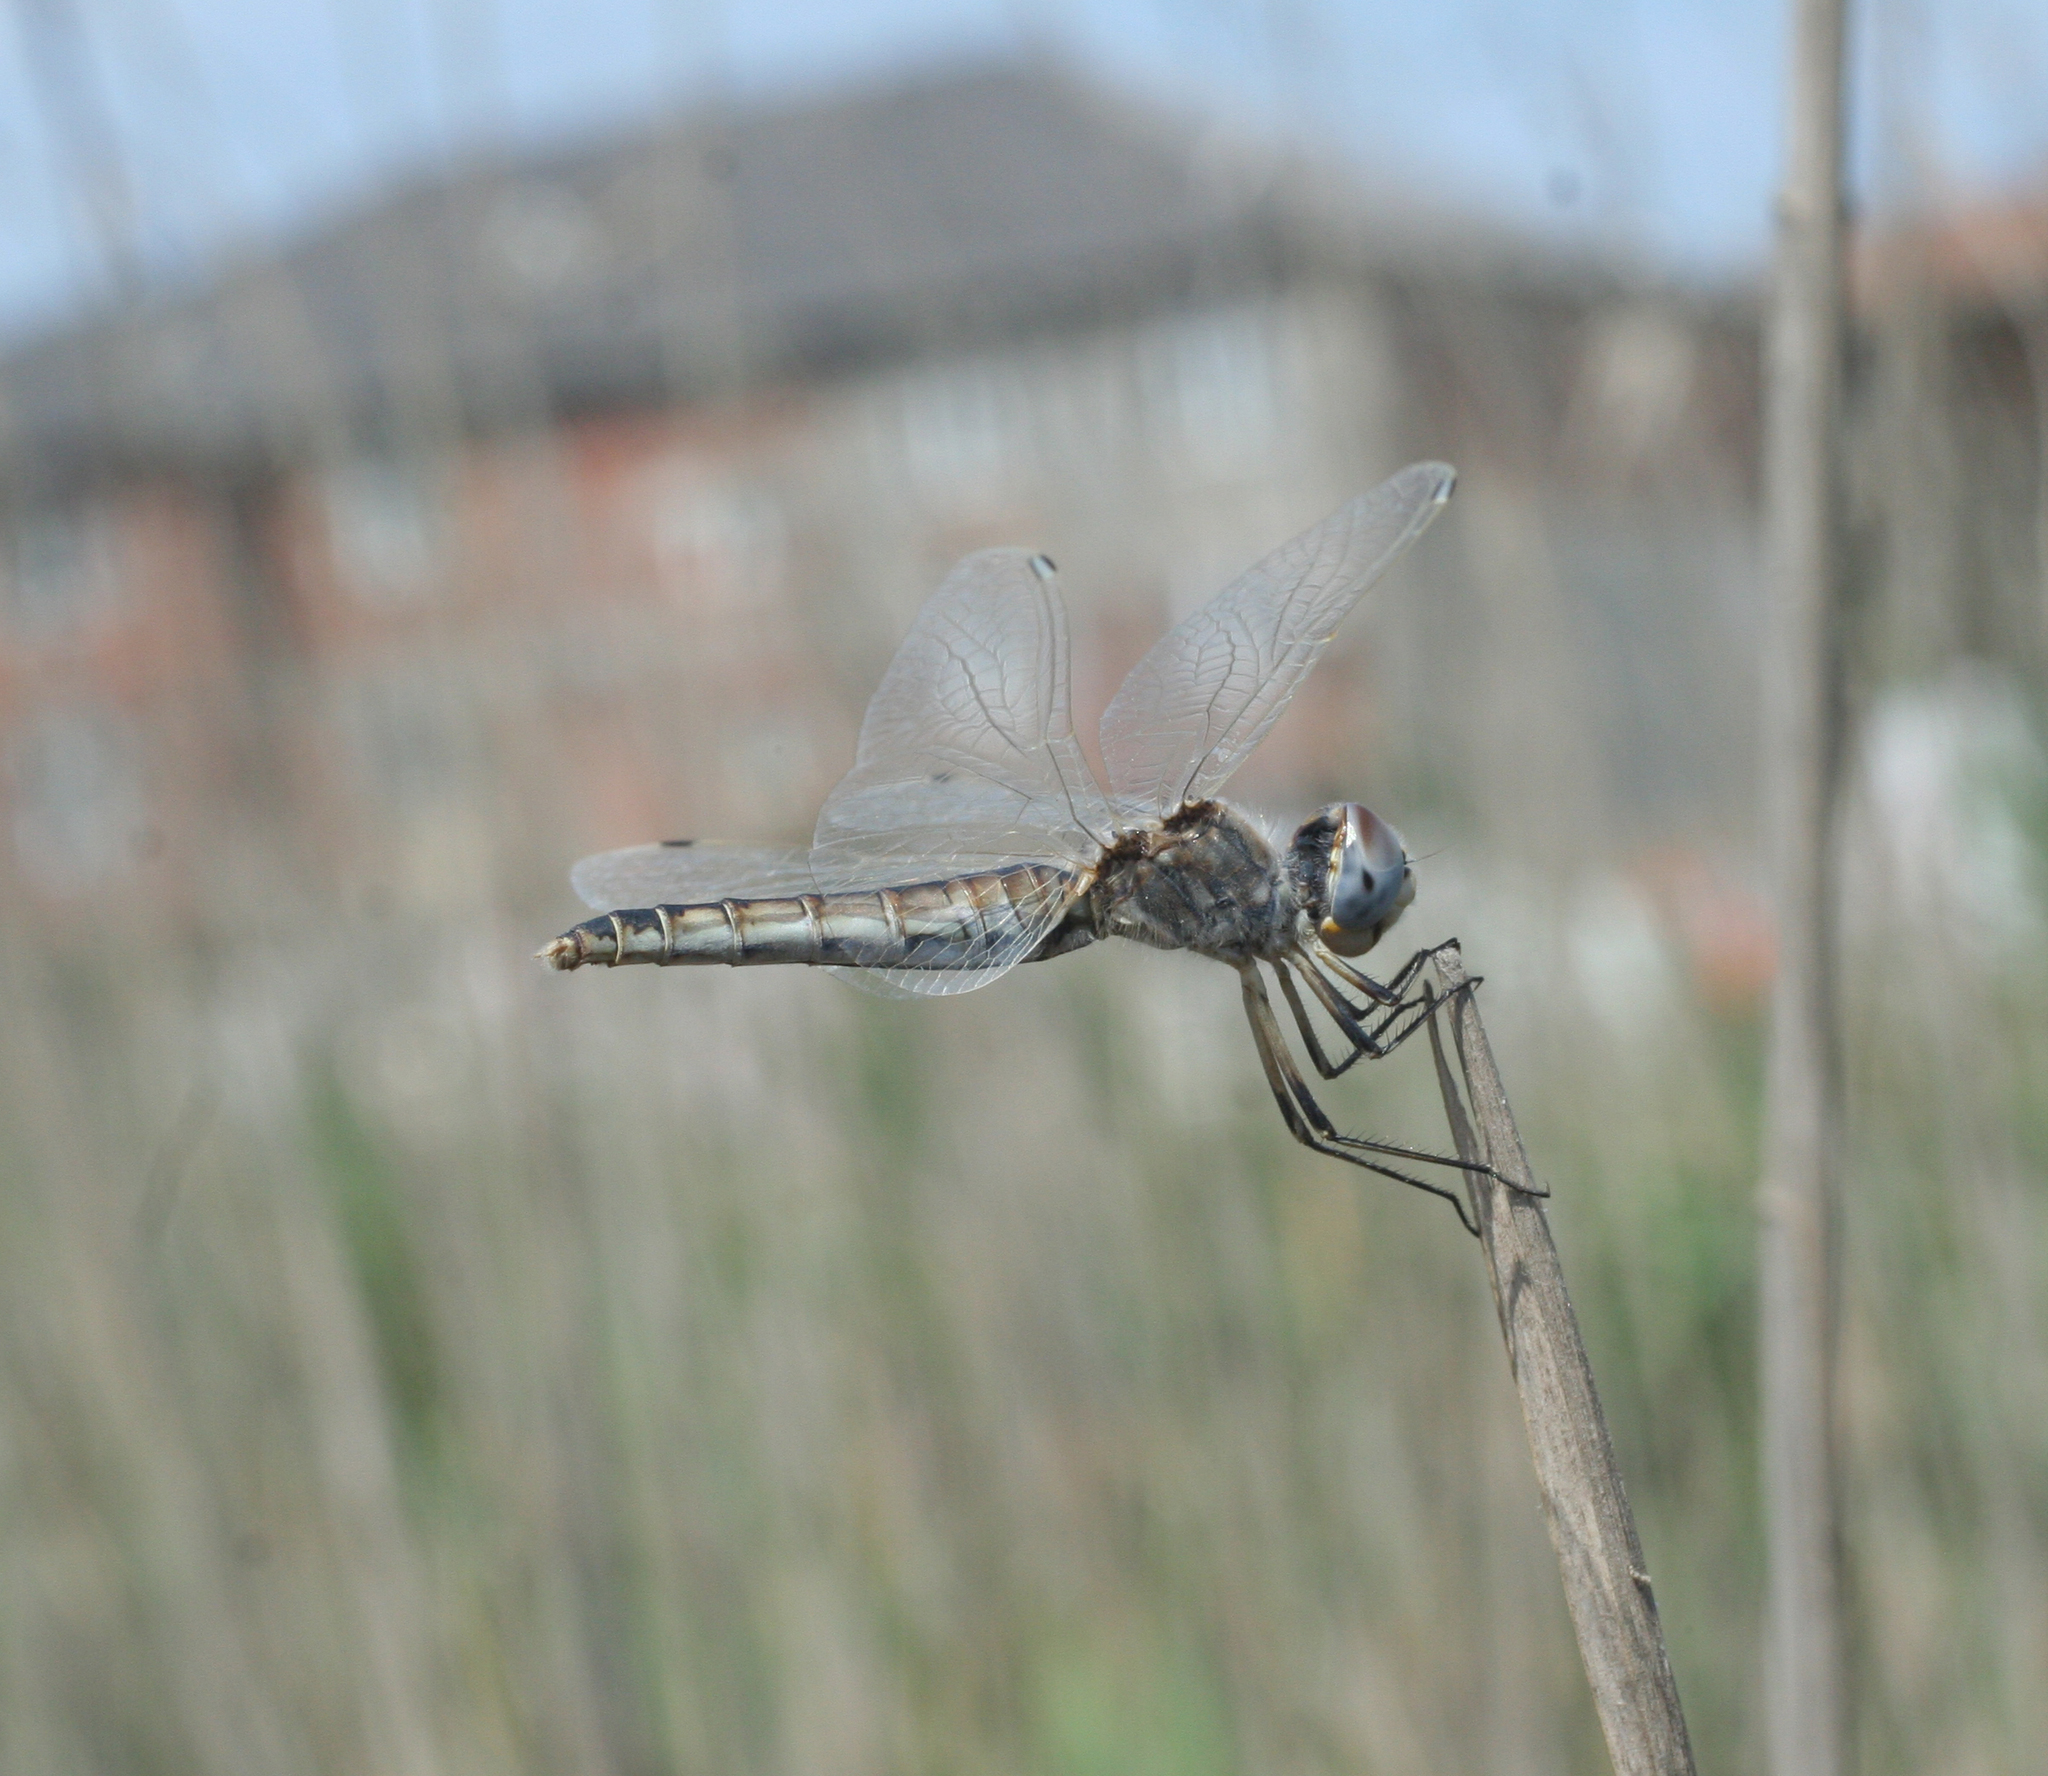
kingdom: Animalia
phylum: Arthropoda
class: Insecta
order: Odonata
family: Libellulidae
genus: Selysiothemis
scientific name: Selysiothemis nigra
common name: Black pennant
